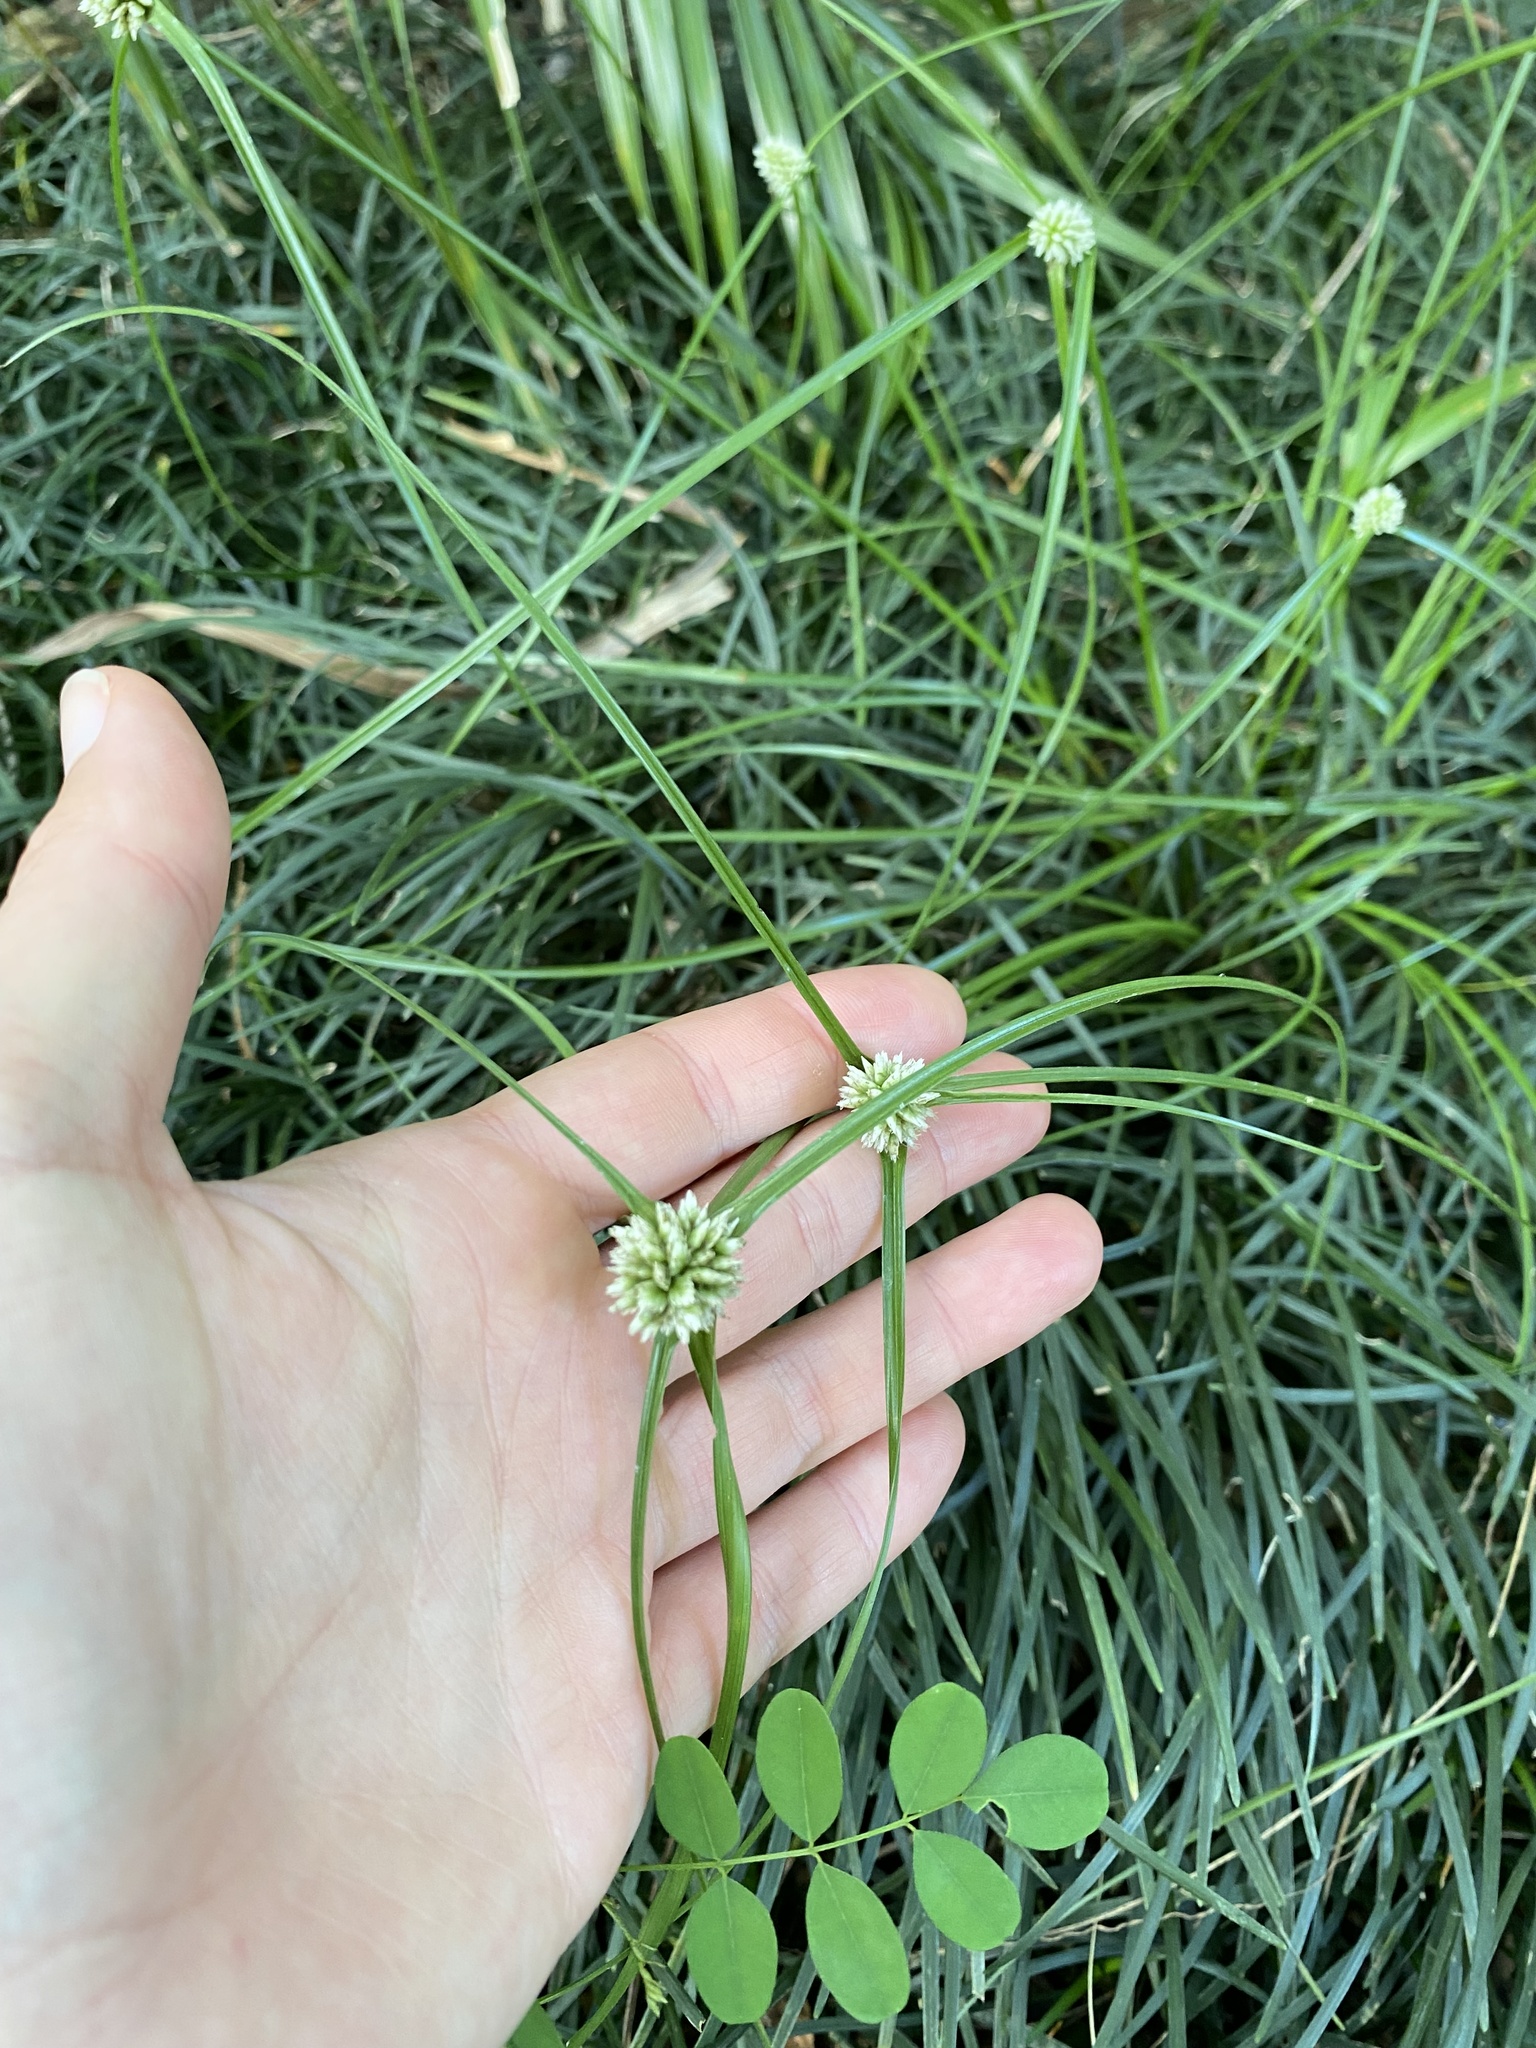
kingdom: Plantae
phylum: Tracheophyta
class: Liliopsida
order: Poales
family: Cyperaceae
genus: Cyperus
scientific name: Cyperus brevifolius
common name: Globe kyllinga
